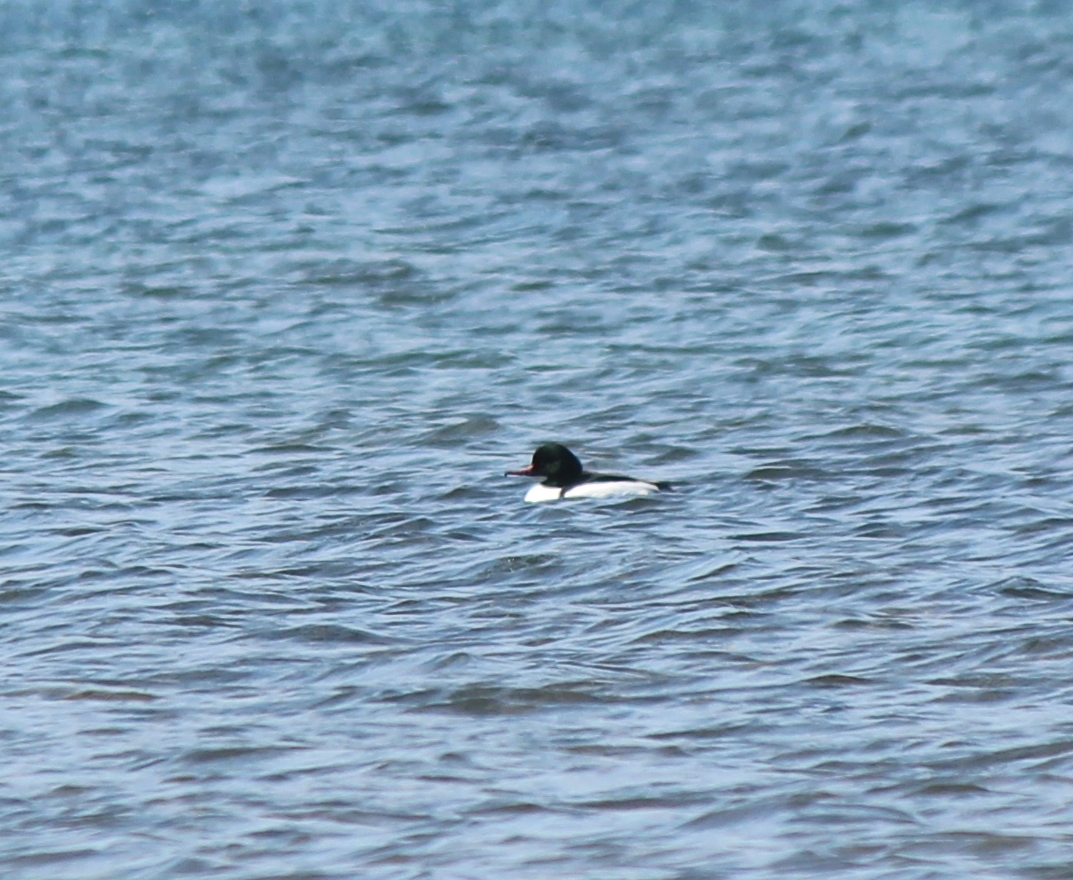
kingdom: Animalia
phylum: Chordata
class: Aves
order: Anseriformes
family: Anatidae
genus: Mergus
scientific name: Mergus merganser
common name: Common merganser
